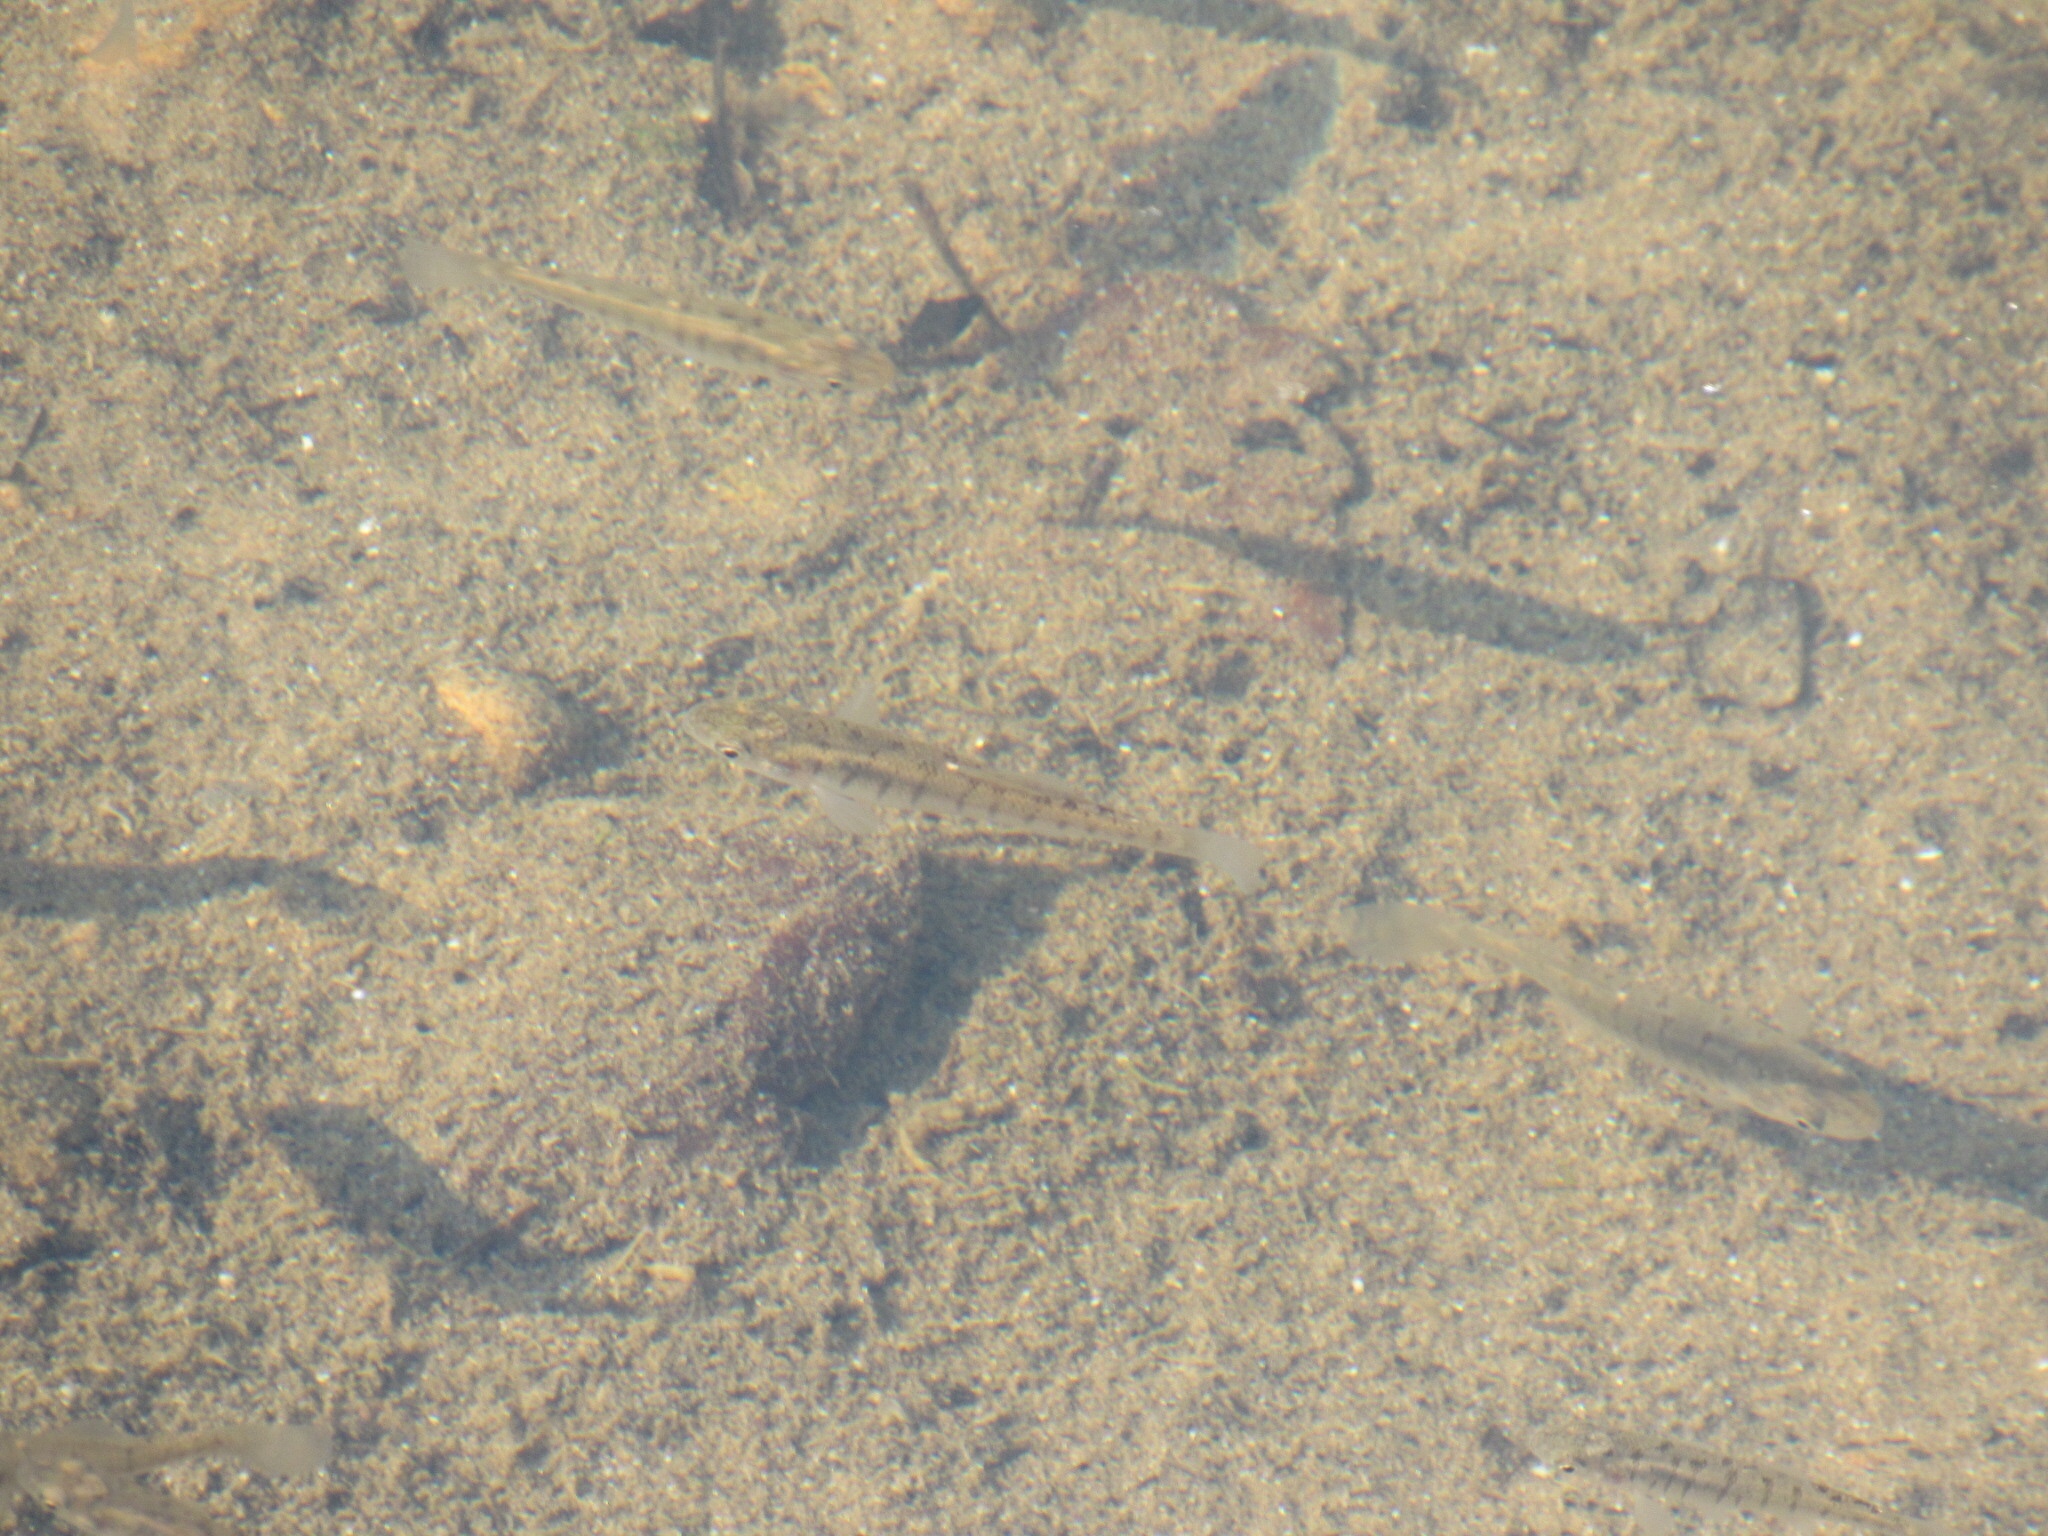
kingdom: Animalia
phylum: Chordata
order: Cyprinodontiformes
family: Fundulidae
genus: Fundulus
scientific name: Fundulus diaphanus
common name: Banded killifish
